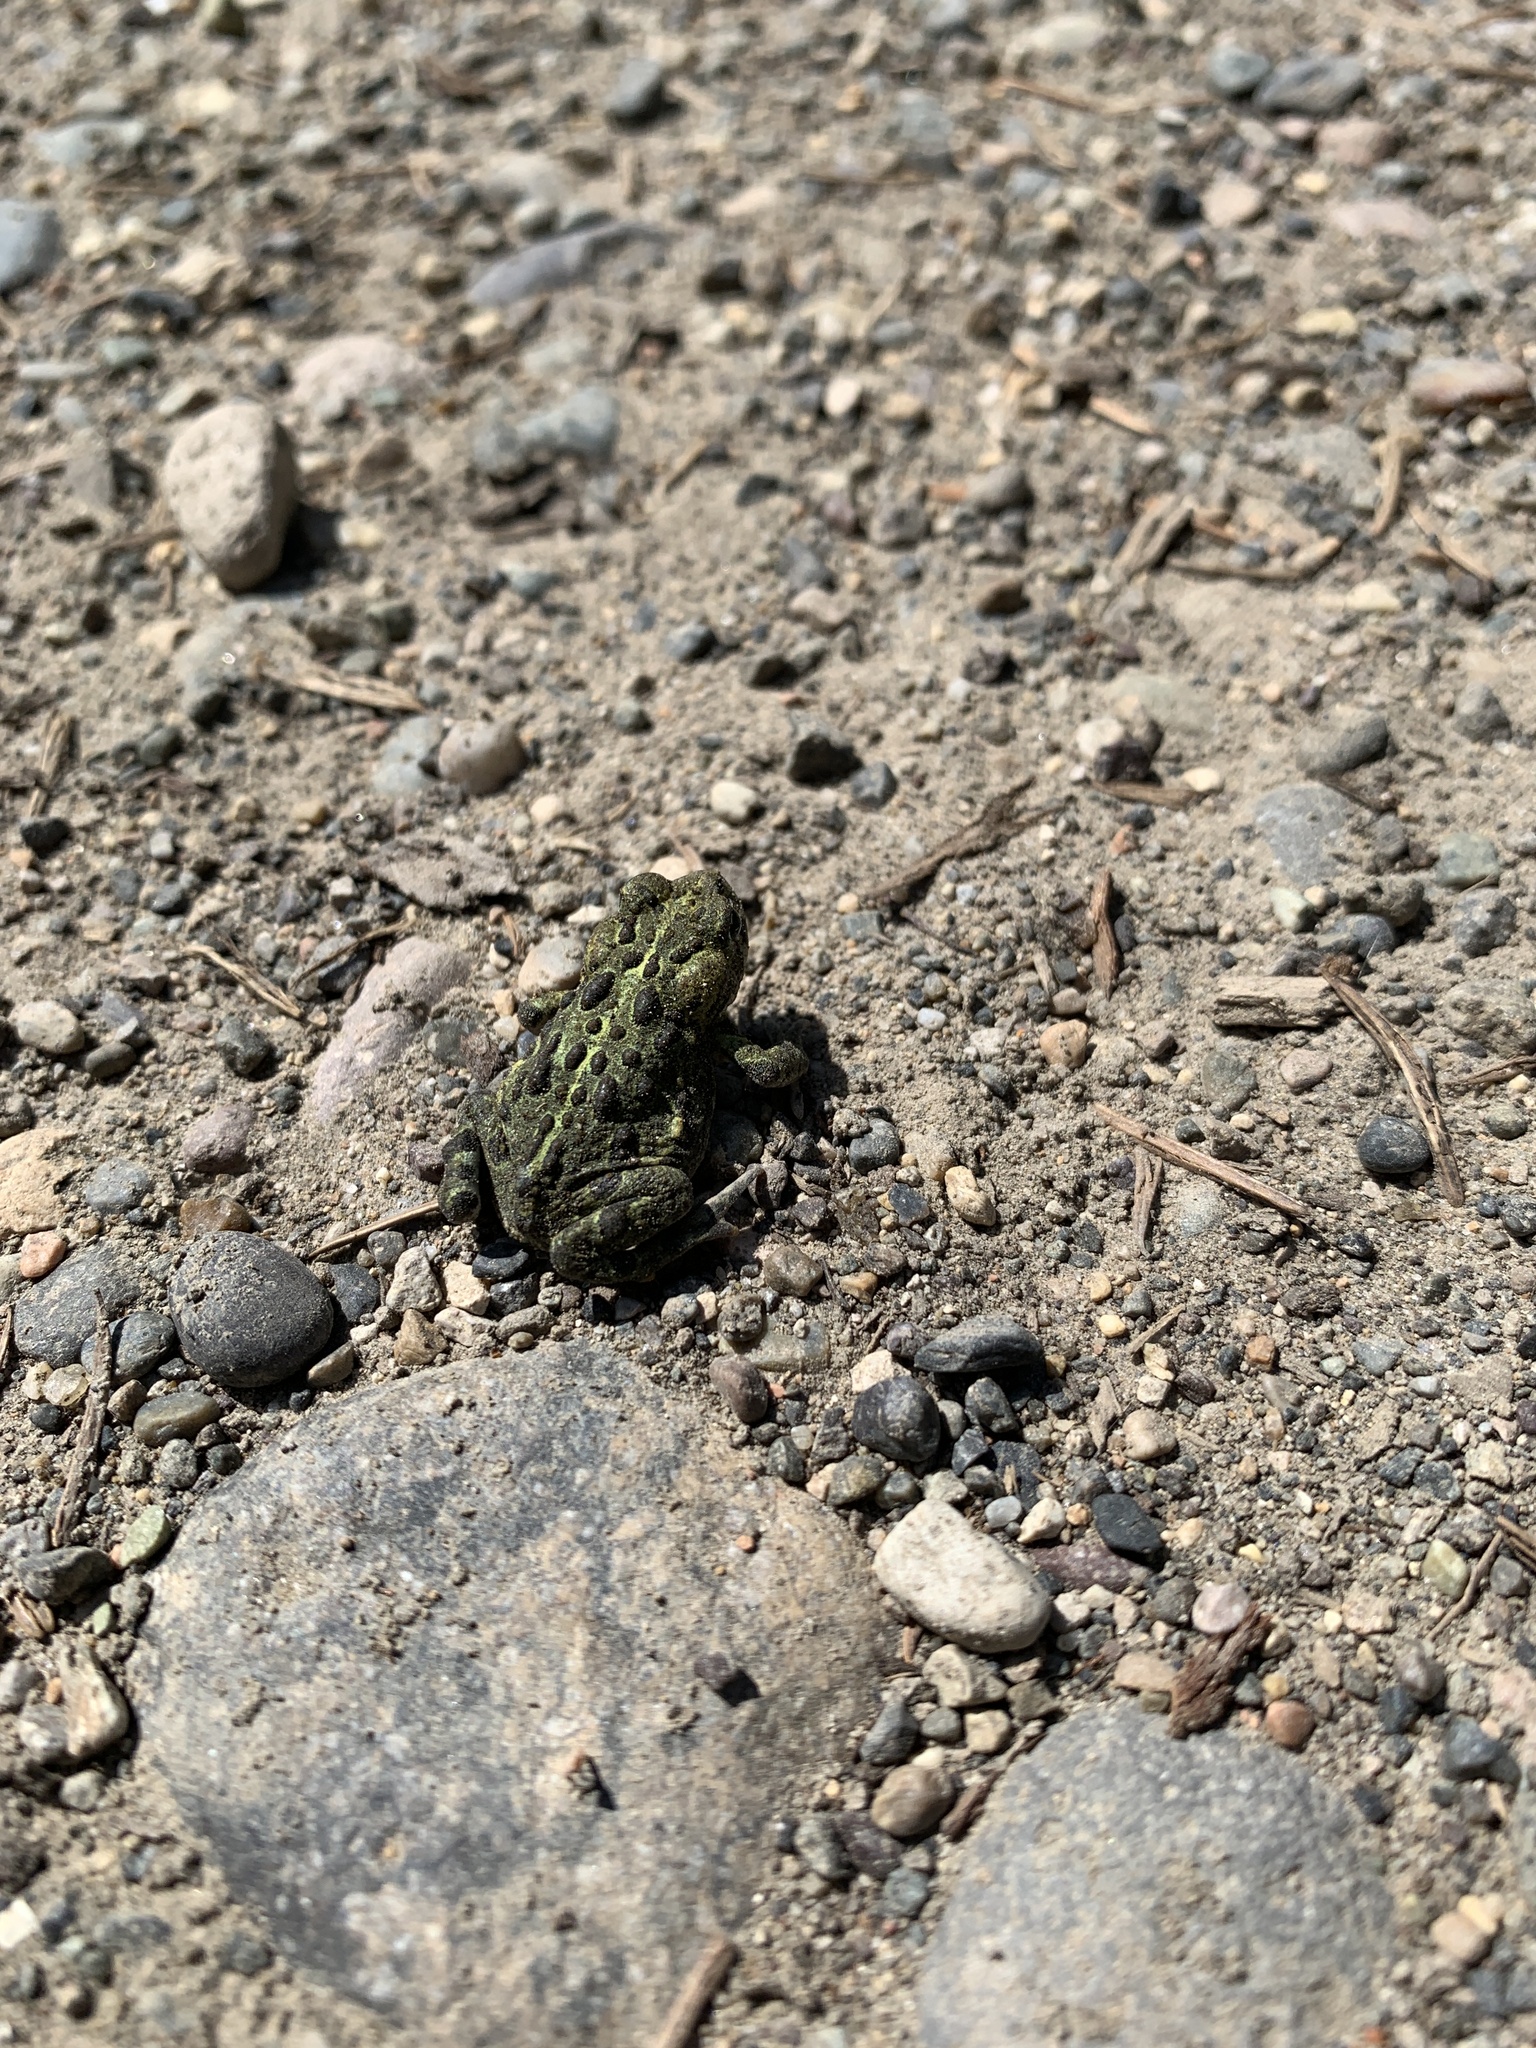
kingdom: Animalia
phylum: Chordata
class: Amphibia
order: Anura
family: Bufonidae
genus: Anaxyrus
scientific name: Anaxyrus boreas
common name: Western toad
